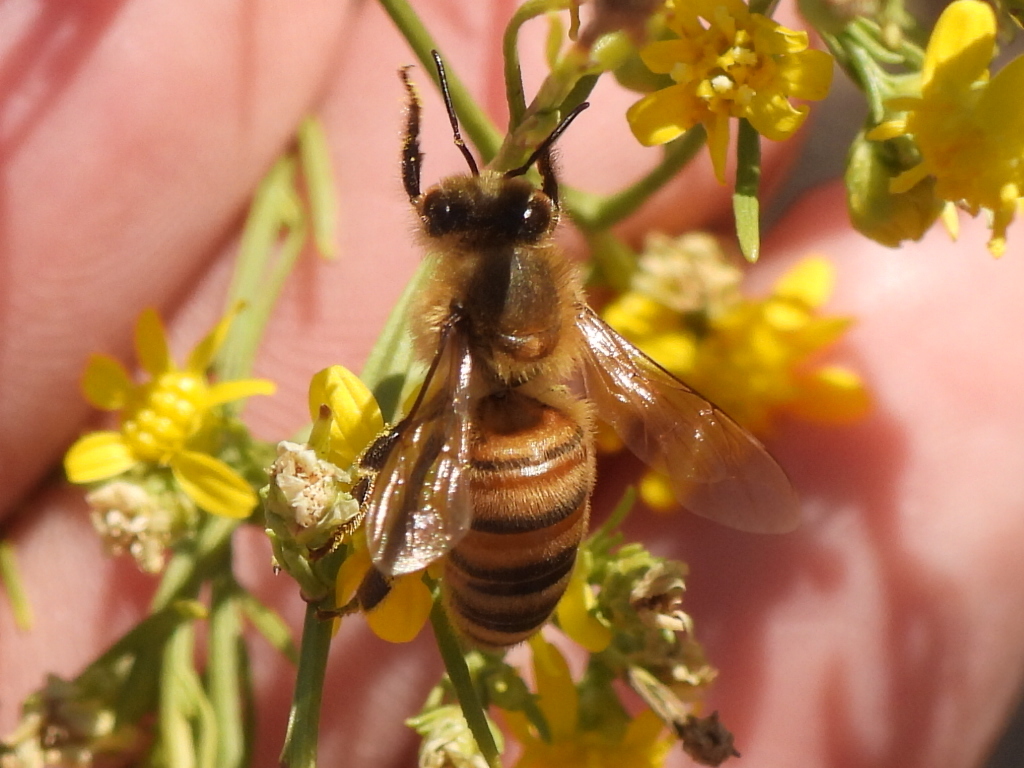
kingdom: Animalia
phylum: Arthropoda
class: Insecta
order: Hymenoptera
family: Apidae
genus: Apis
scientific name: Apis mellifera
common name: Honey bee
